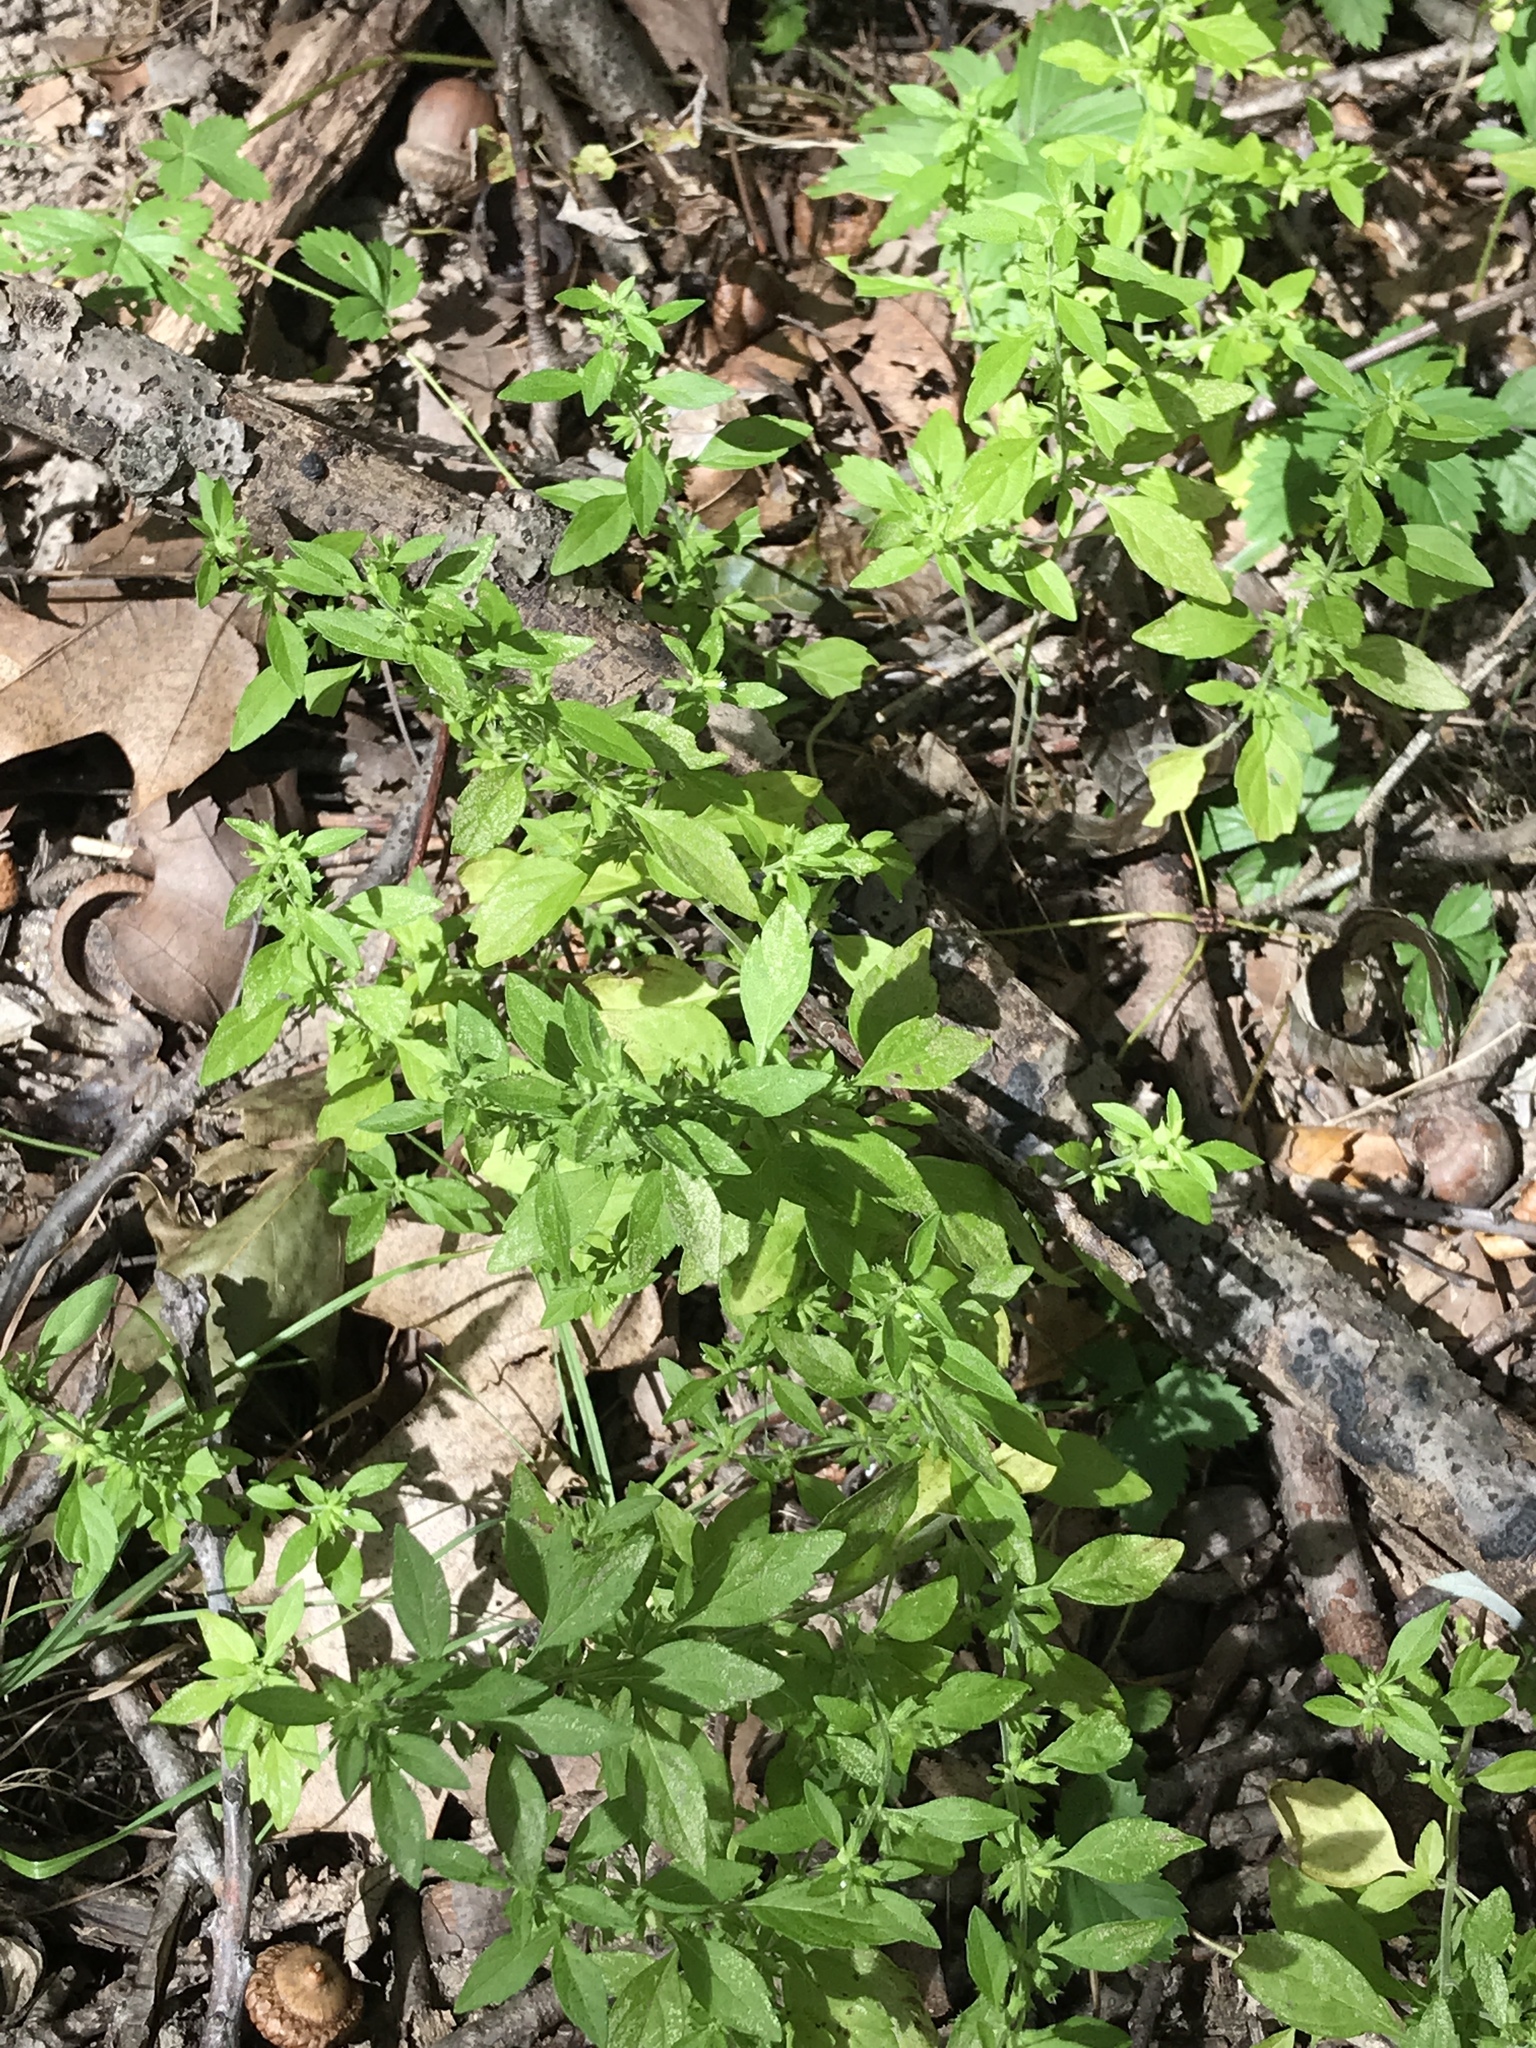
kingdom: Plantae
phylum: Tracheophyta
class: Magnoliopsida
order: Lamiales
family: Lamiaceae
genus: Hedeoma
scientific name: Hedeoma pulegioides
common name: American false pennyroyal
